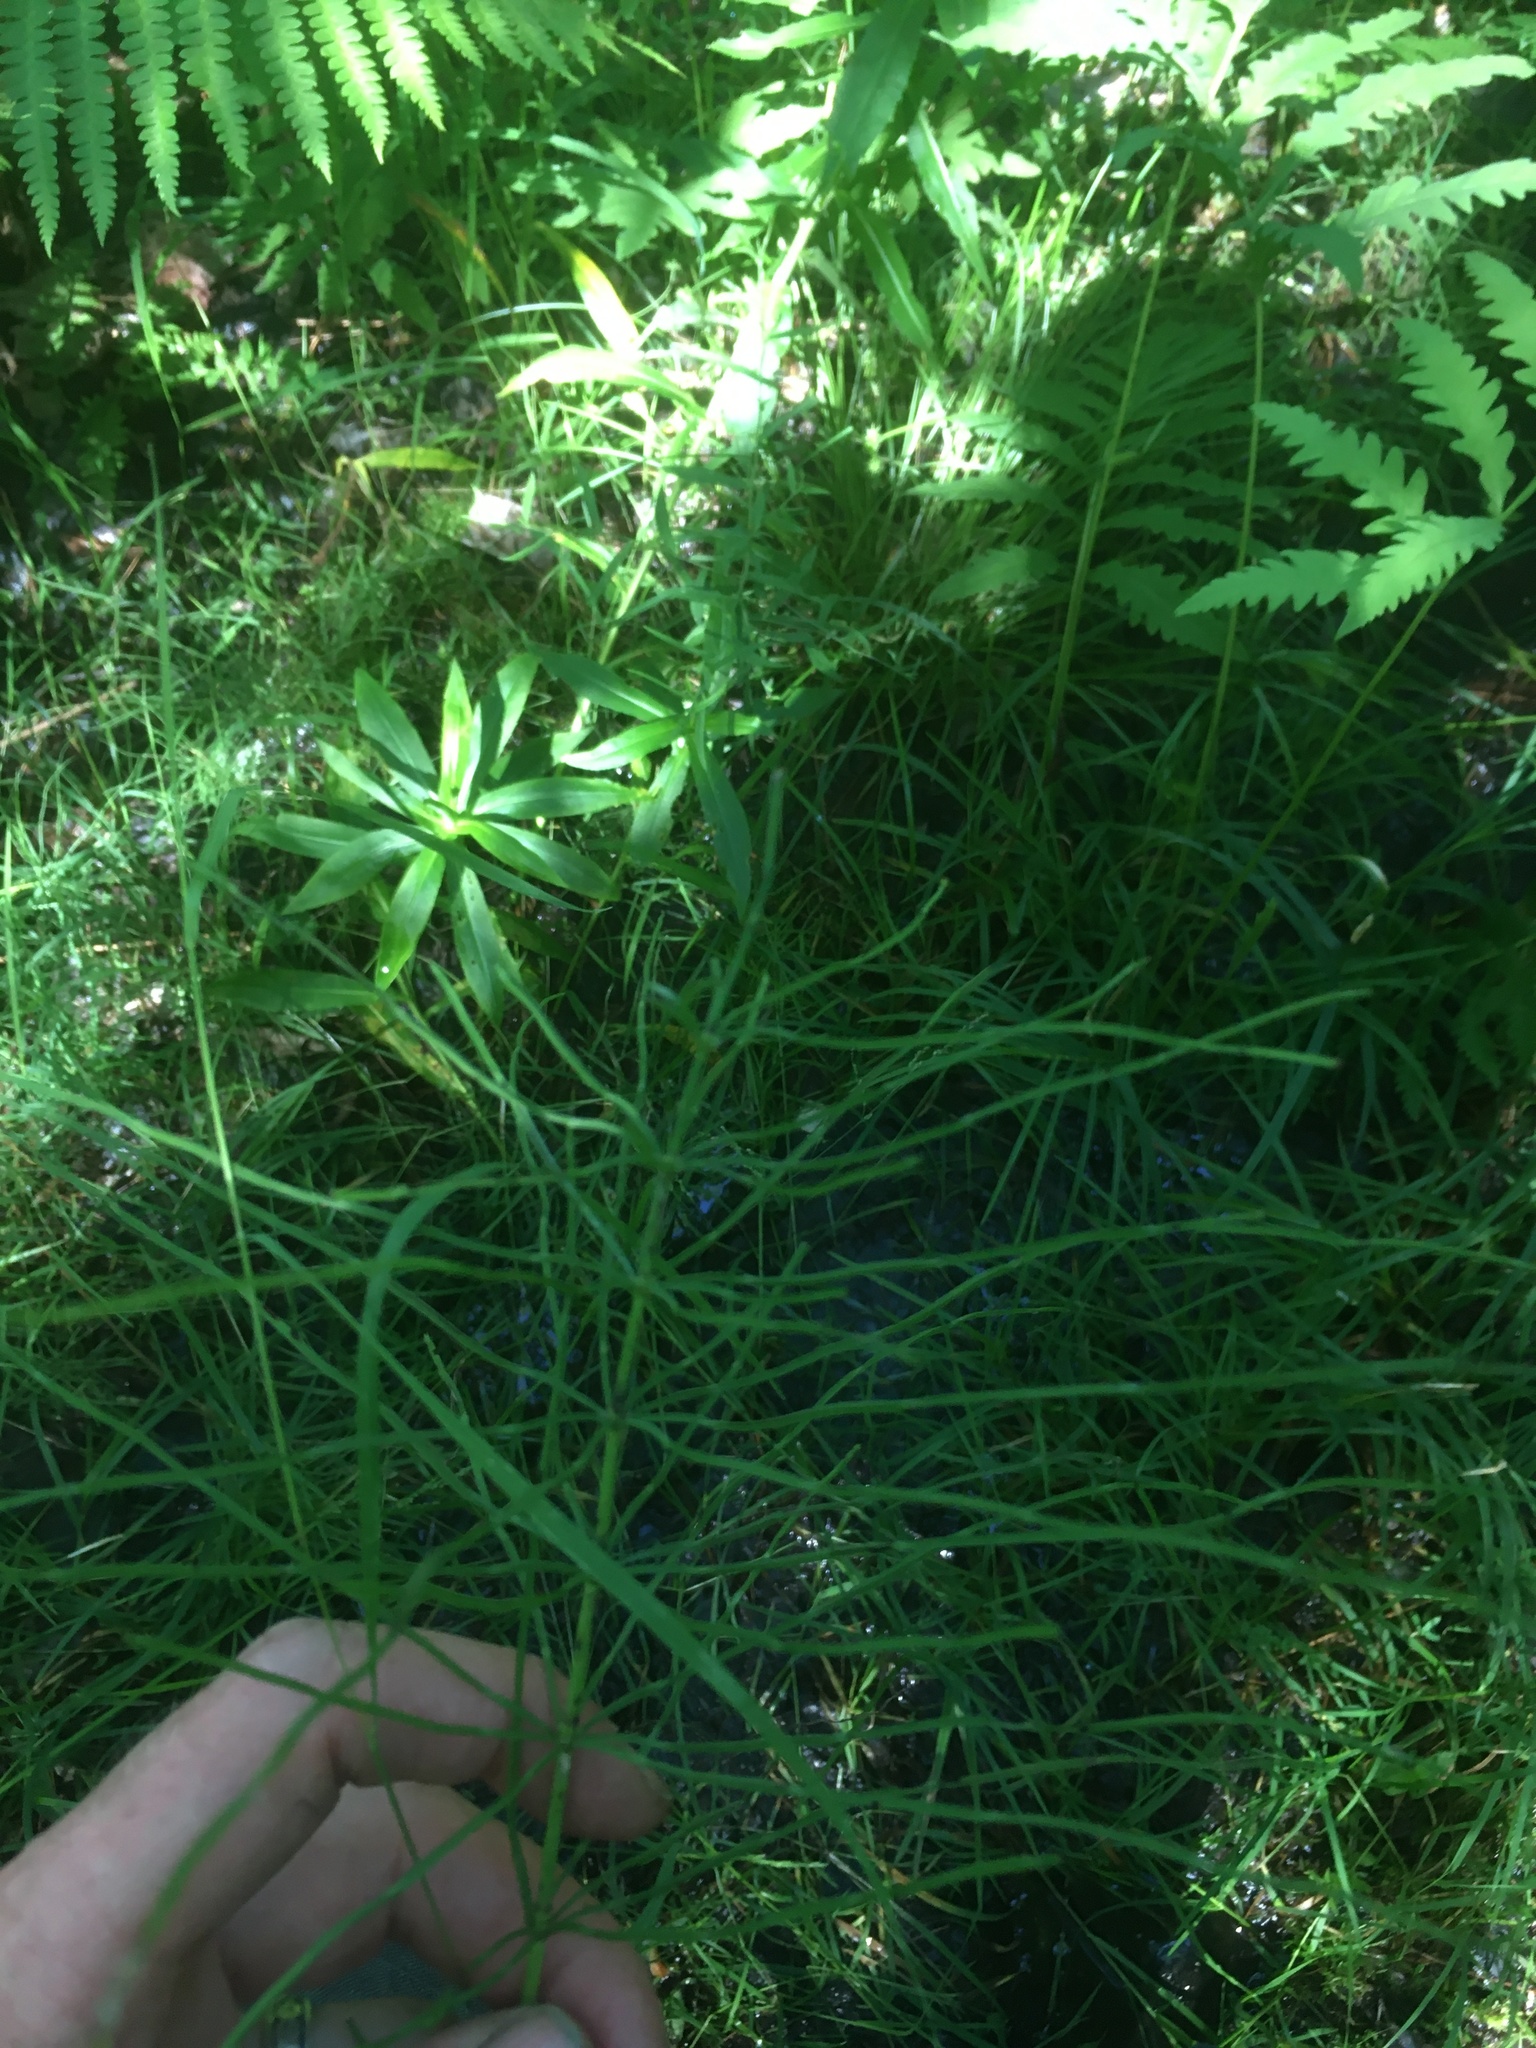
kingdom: Plantae
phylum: Tracheophyta
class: Polypodiopsida
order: Equisetales
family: Equisetaceae
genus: Equisetum
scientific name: Equisetum arvense
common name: Field horsetail
